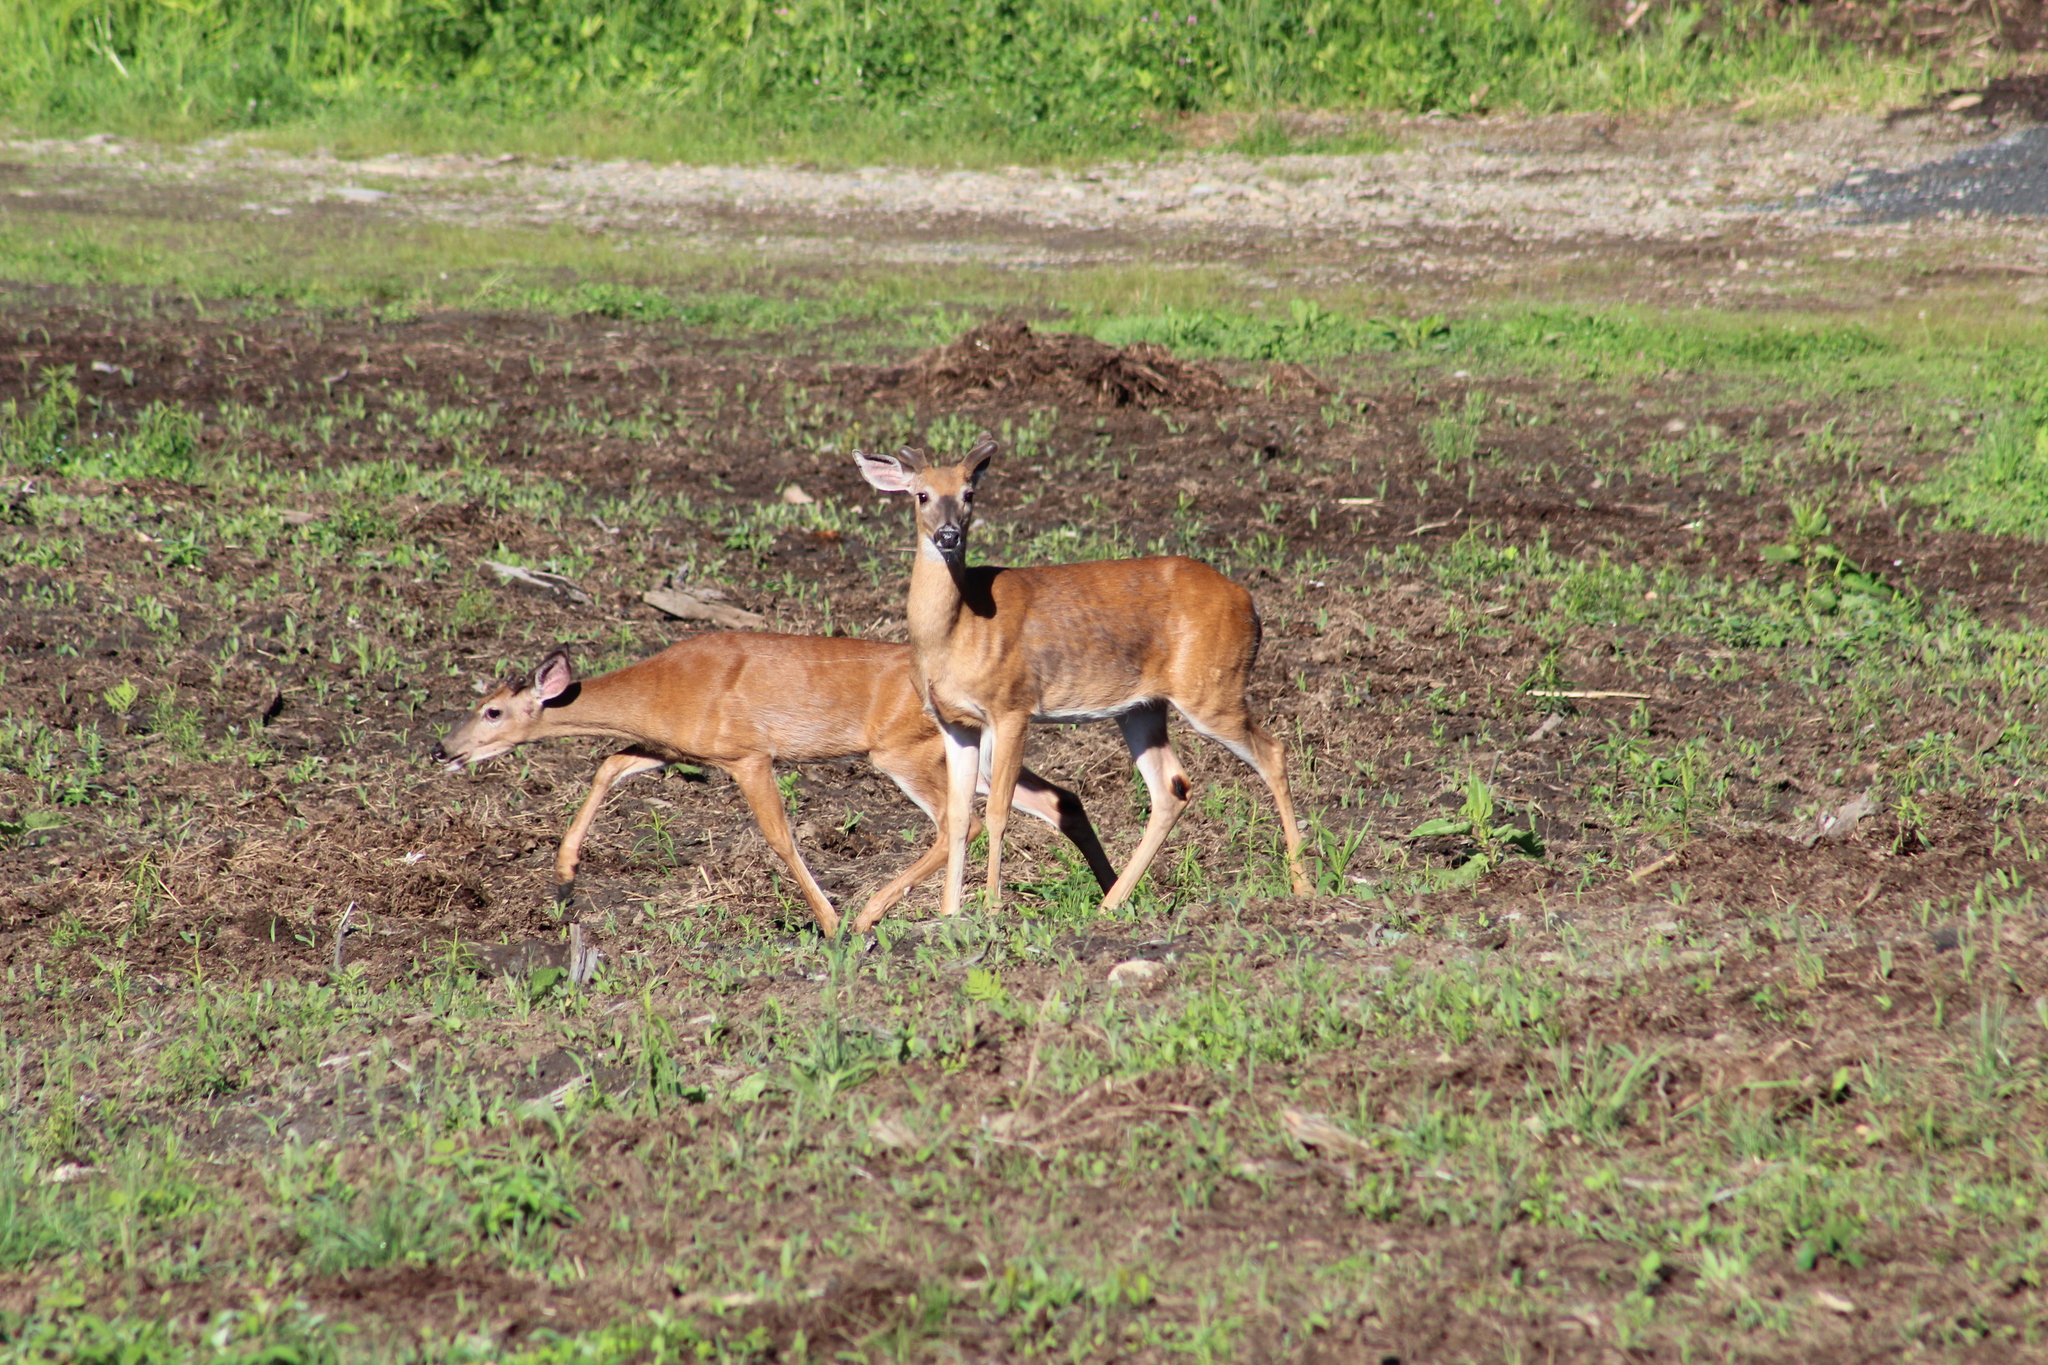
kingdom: Animalia
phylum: Chordata
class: Mammalia
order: Artiodactyla
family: Cervidae
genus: Odocoileus
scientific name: Odocoileus virginianus
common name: White-tailed deer
